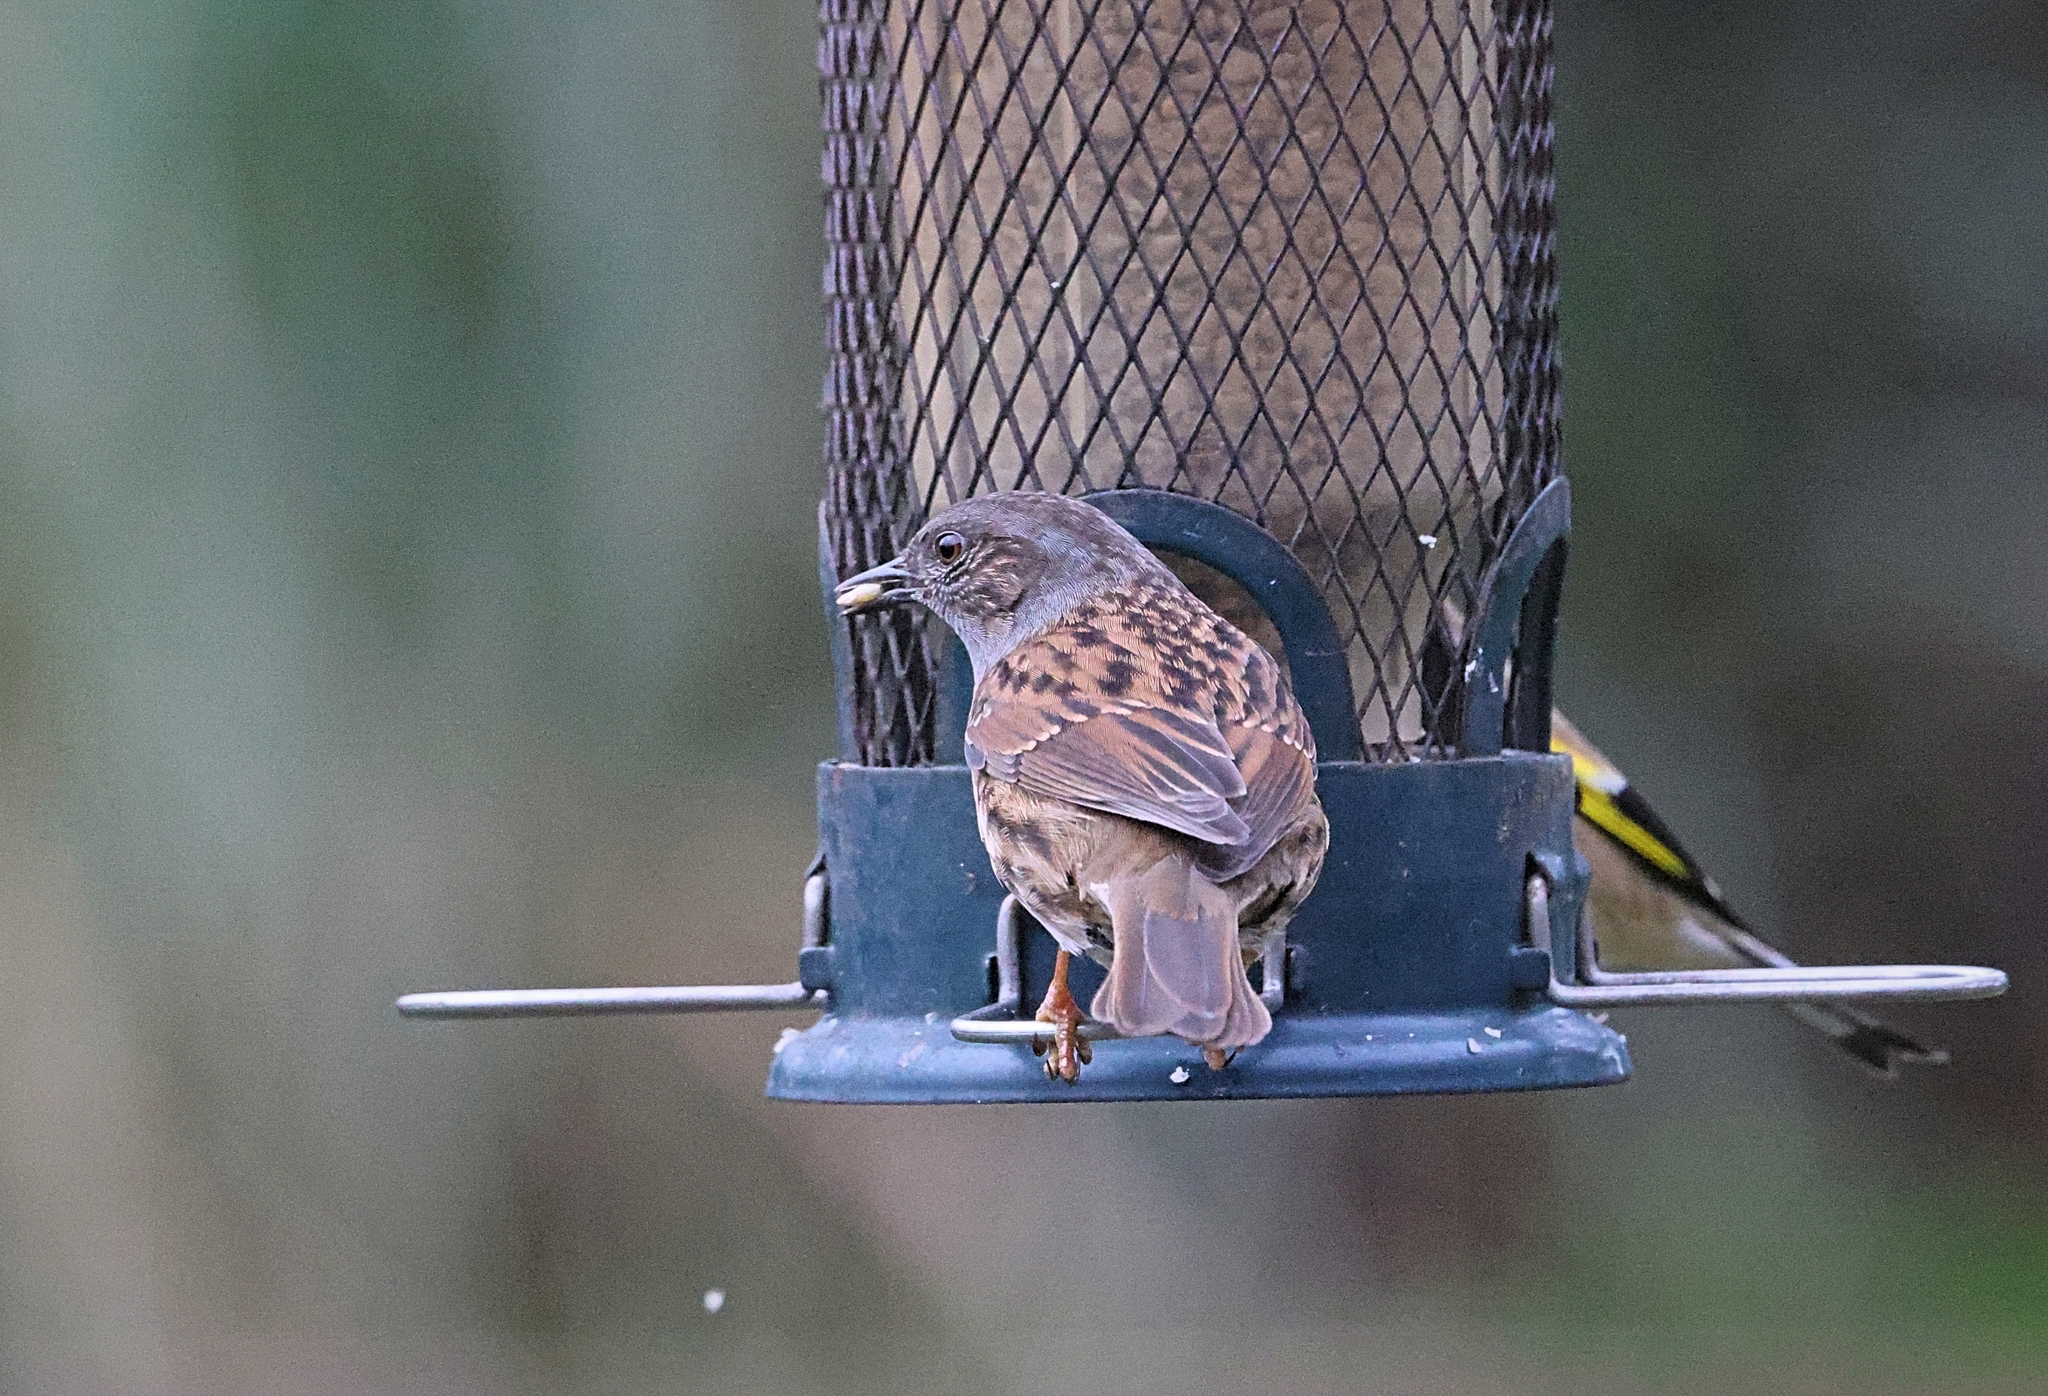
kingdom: Animalia
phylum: Chordata
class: Aves
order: Passeriformes
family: Prunellidae
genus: Prunella
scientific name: Prunella modularis
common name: Dunnock
